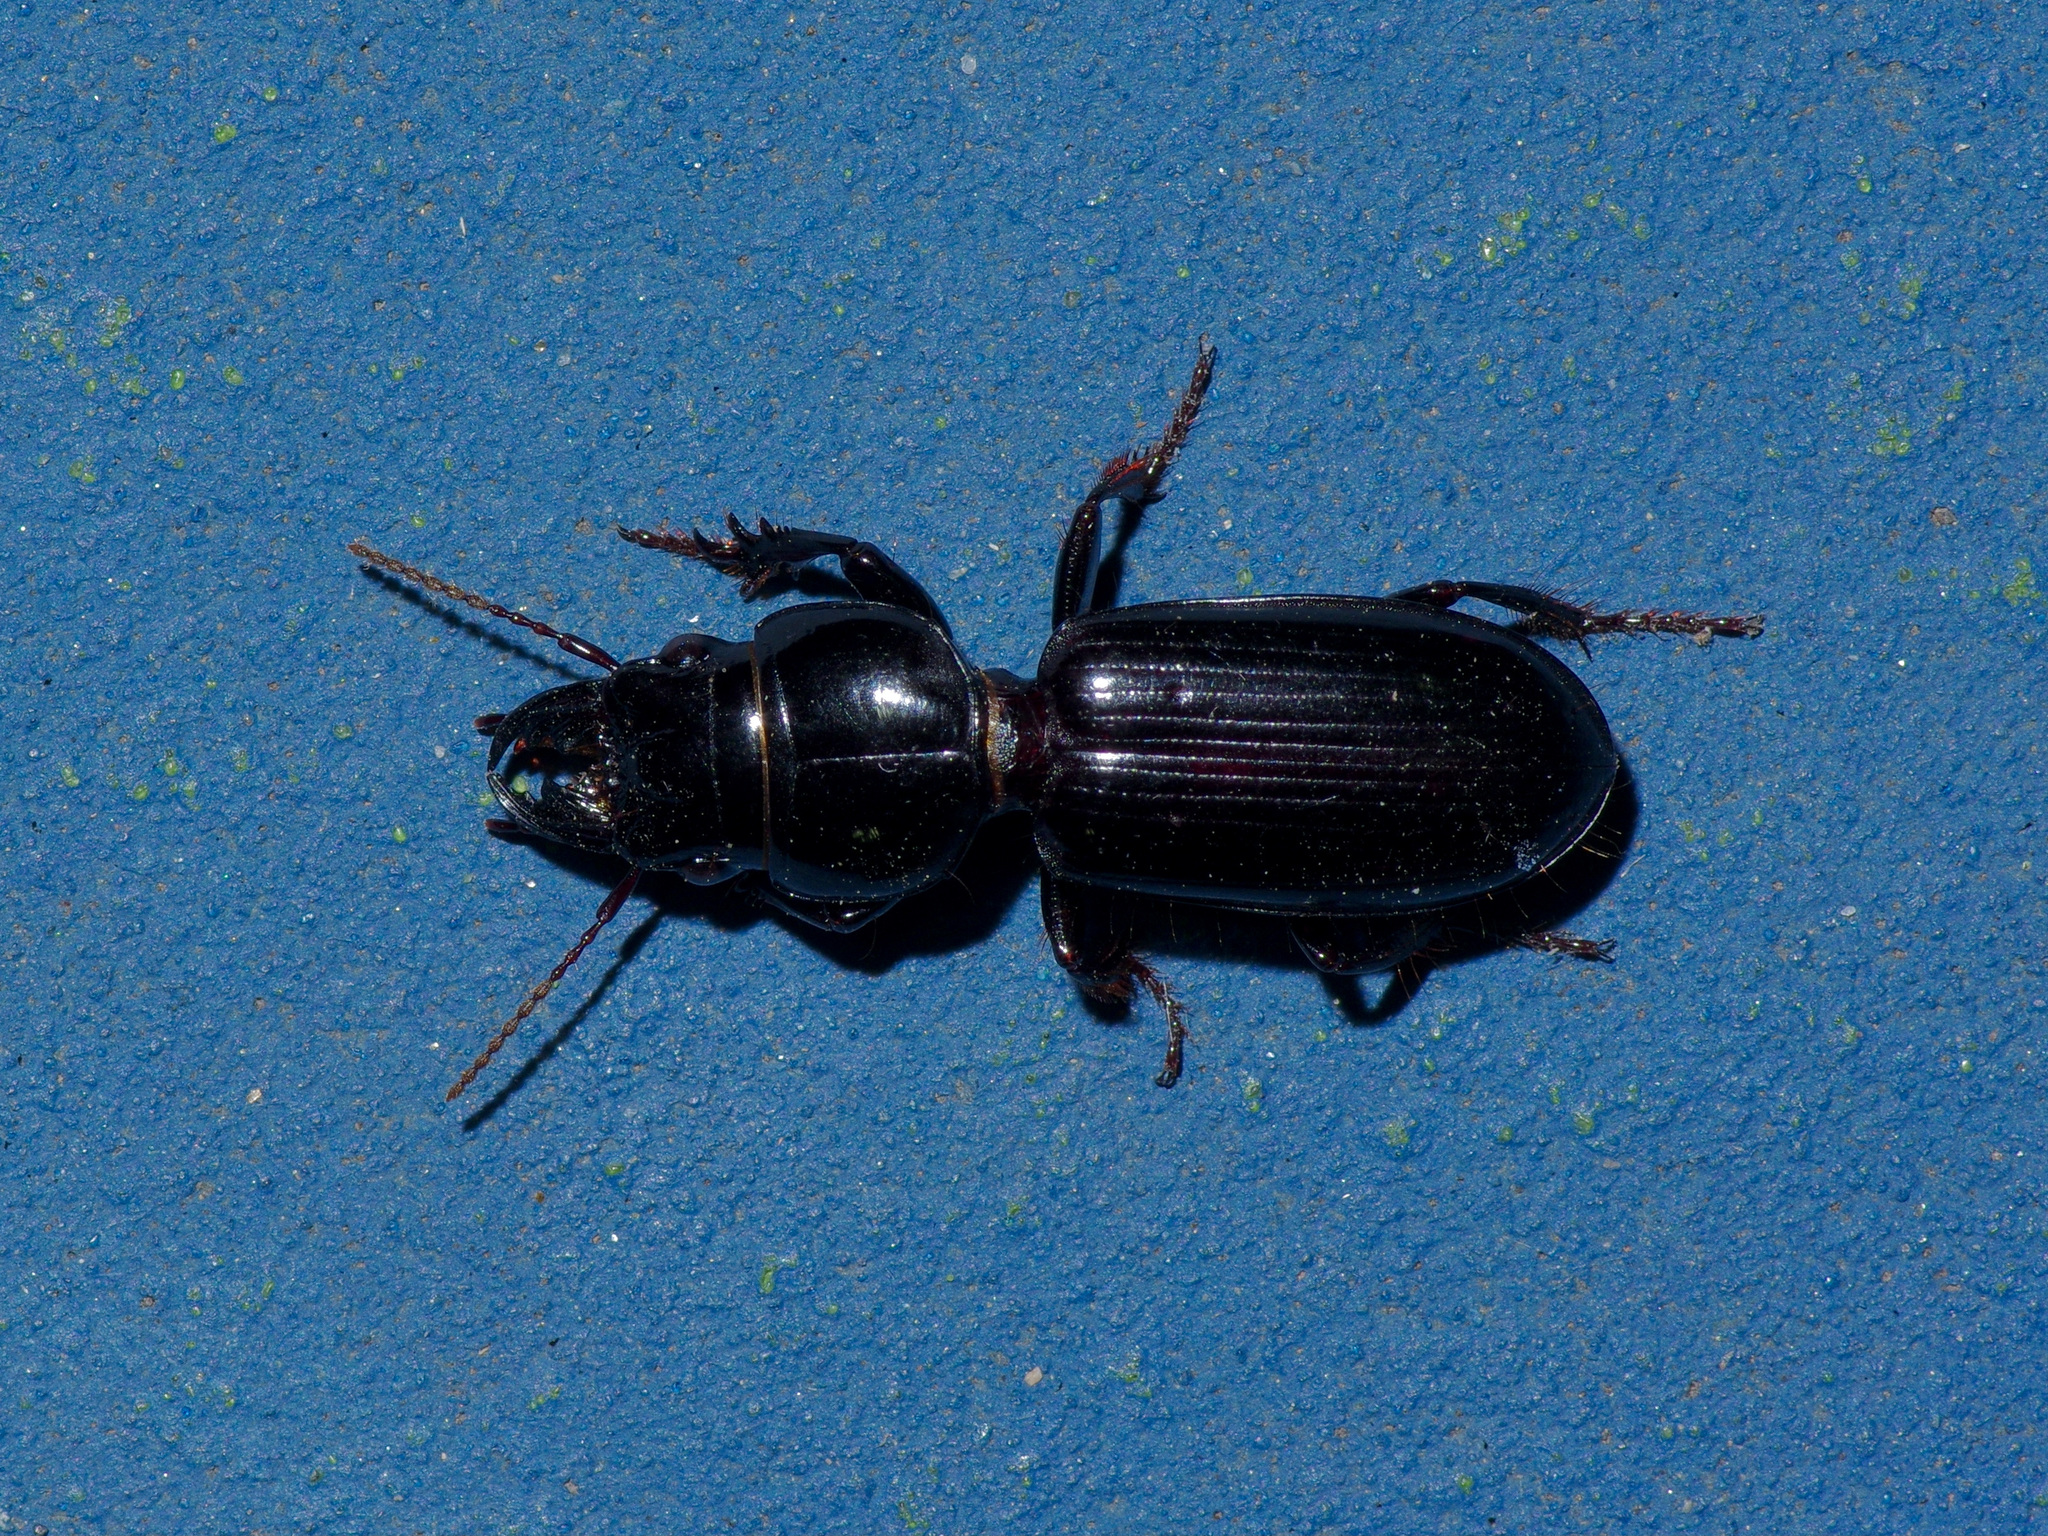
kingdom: Animalia
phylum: Arthropoda
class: Insecta
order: Coleoptera
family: Carabidae
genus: Scarites
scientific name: Scarites subterraneus
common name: Big-headed ground beetle
